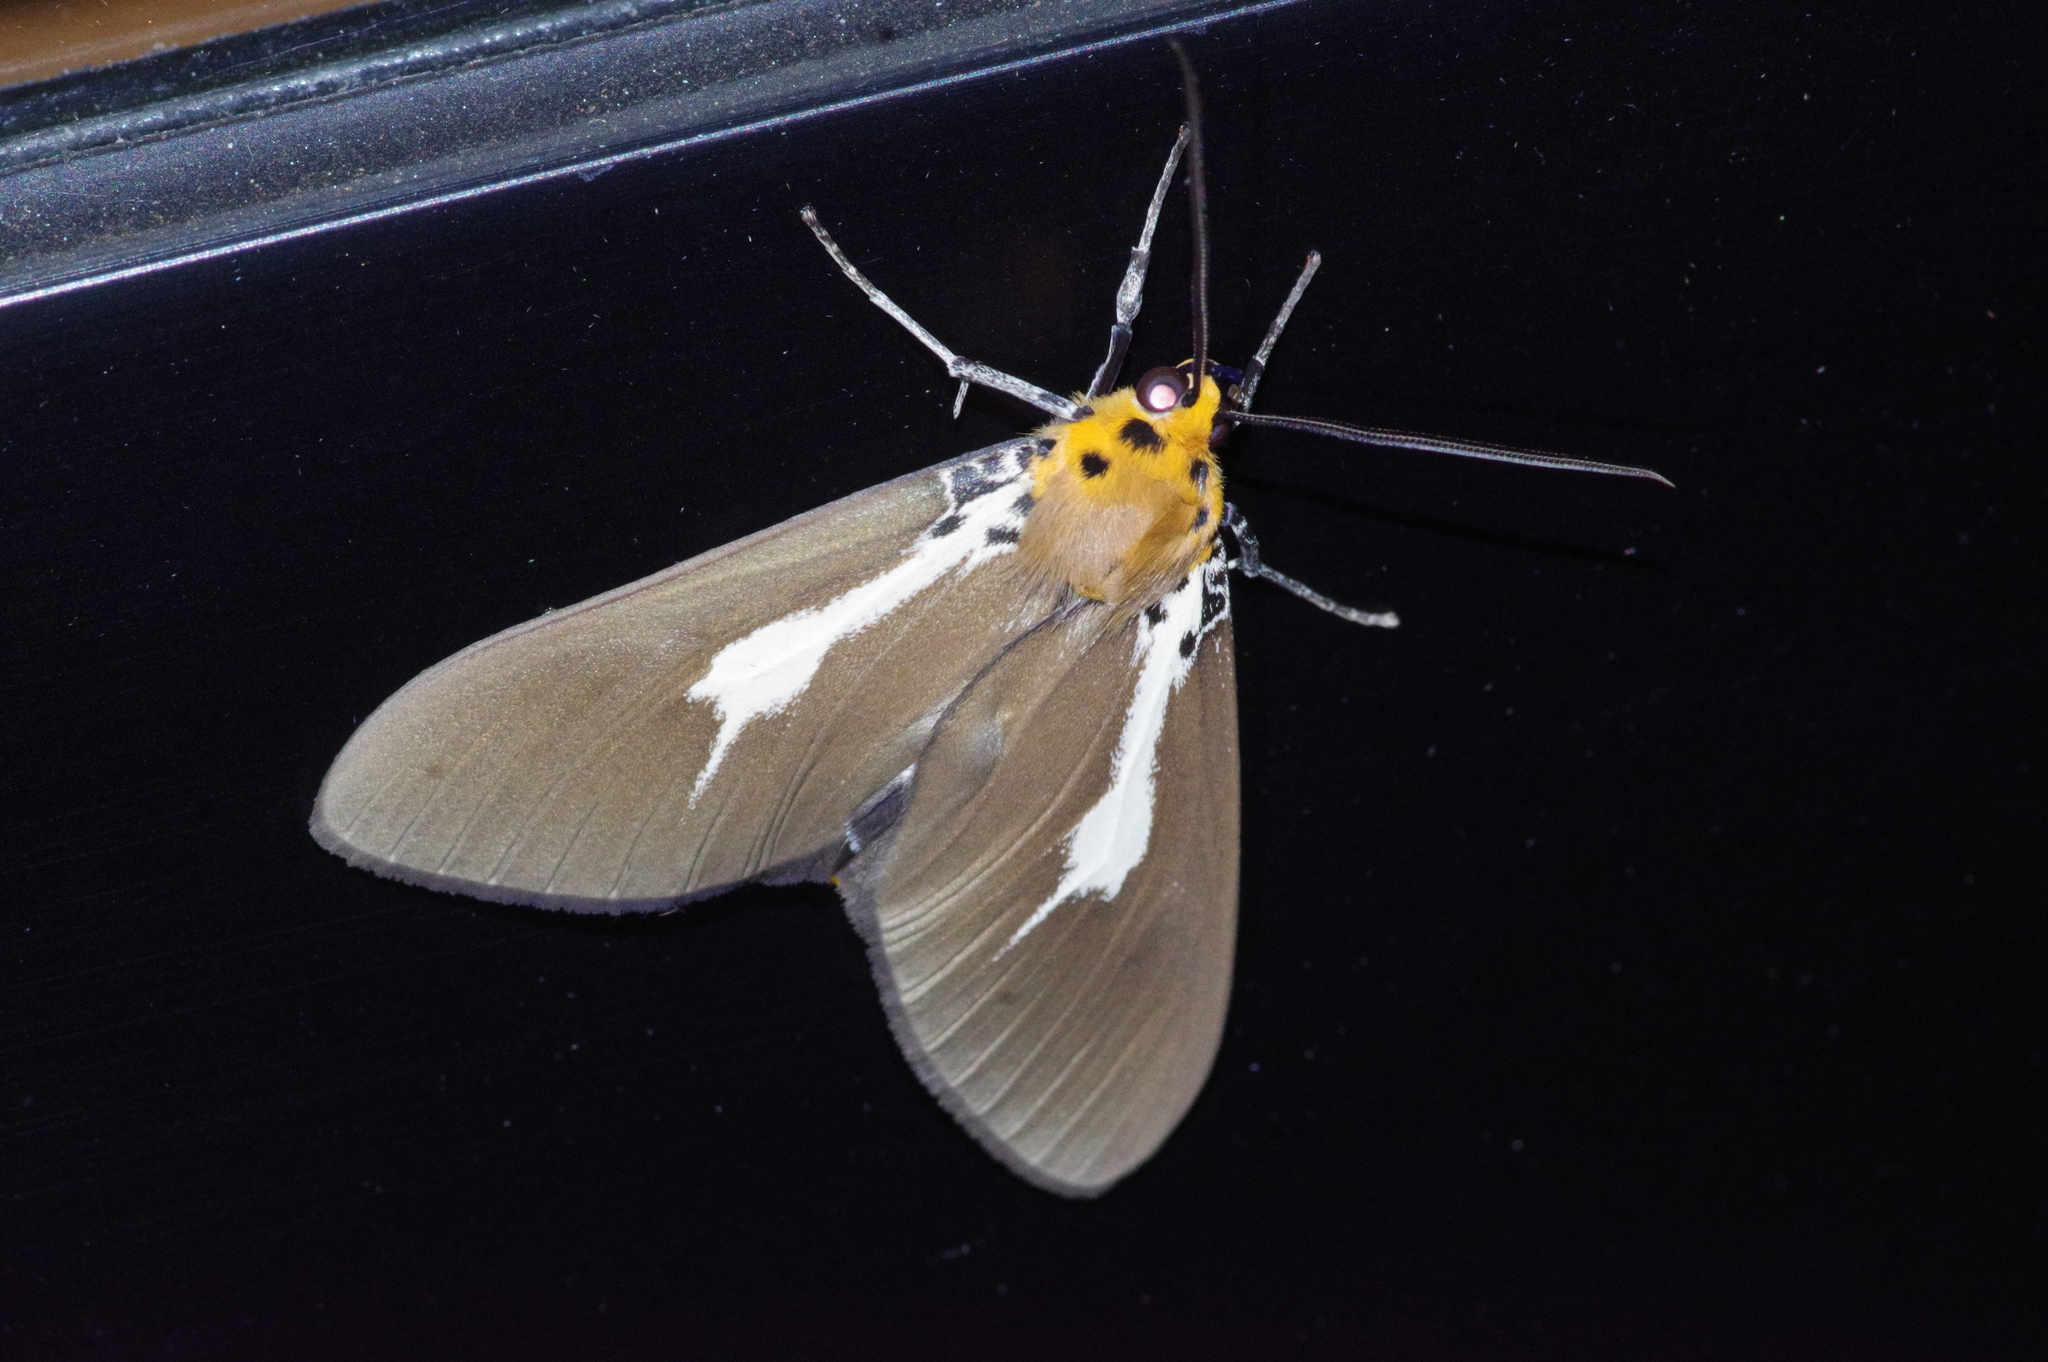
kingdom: Animalia
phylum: Arthropoda
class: Insecta
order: Lepidoptera
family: Erebidae
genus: Asota
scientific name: Asota heliconia
